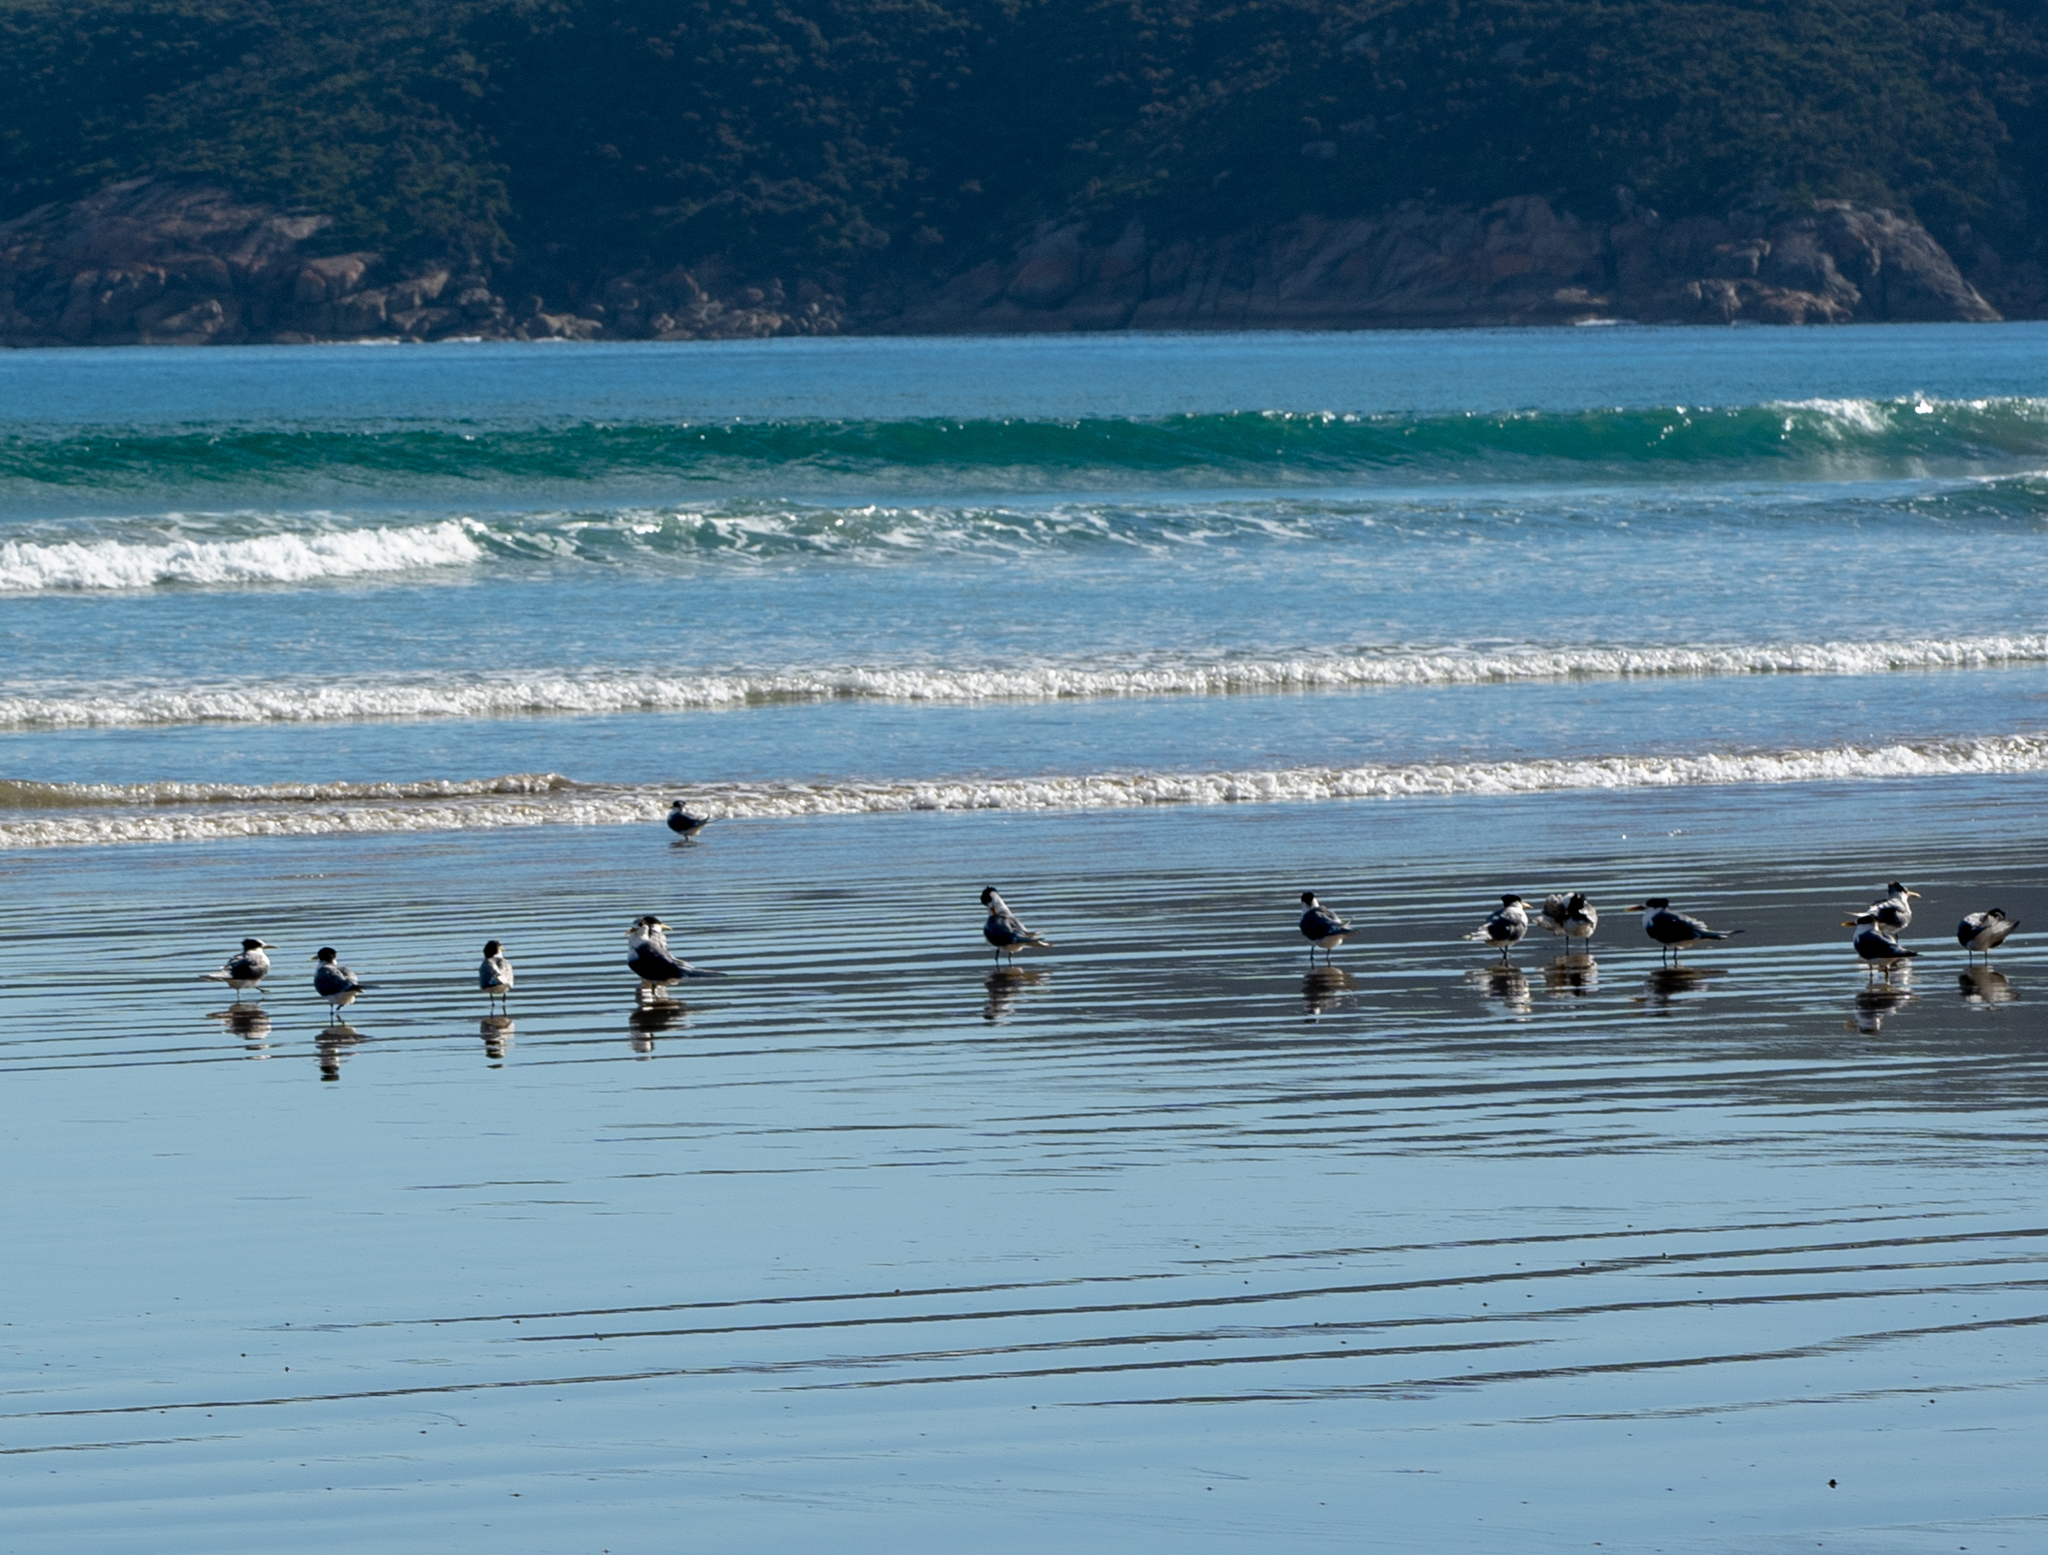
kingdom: Animalia
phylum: Chordata
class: Aves
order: Charadriiformes
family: Laridae
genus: Thalasseus
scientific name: Thalasseus bergii
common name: Greater crested tern
